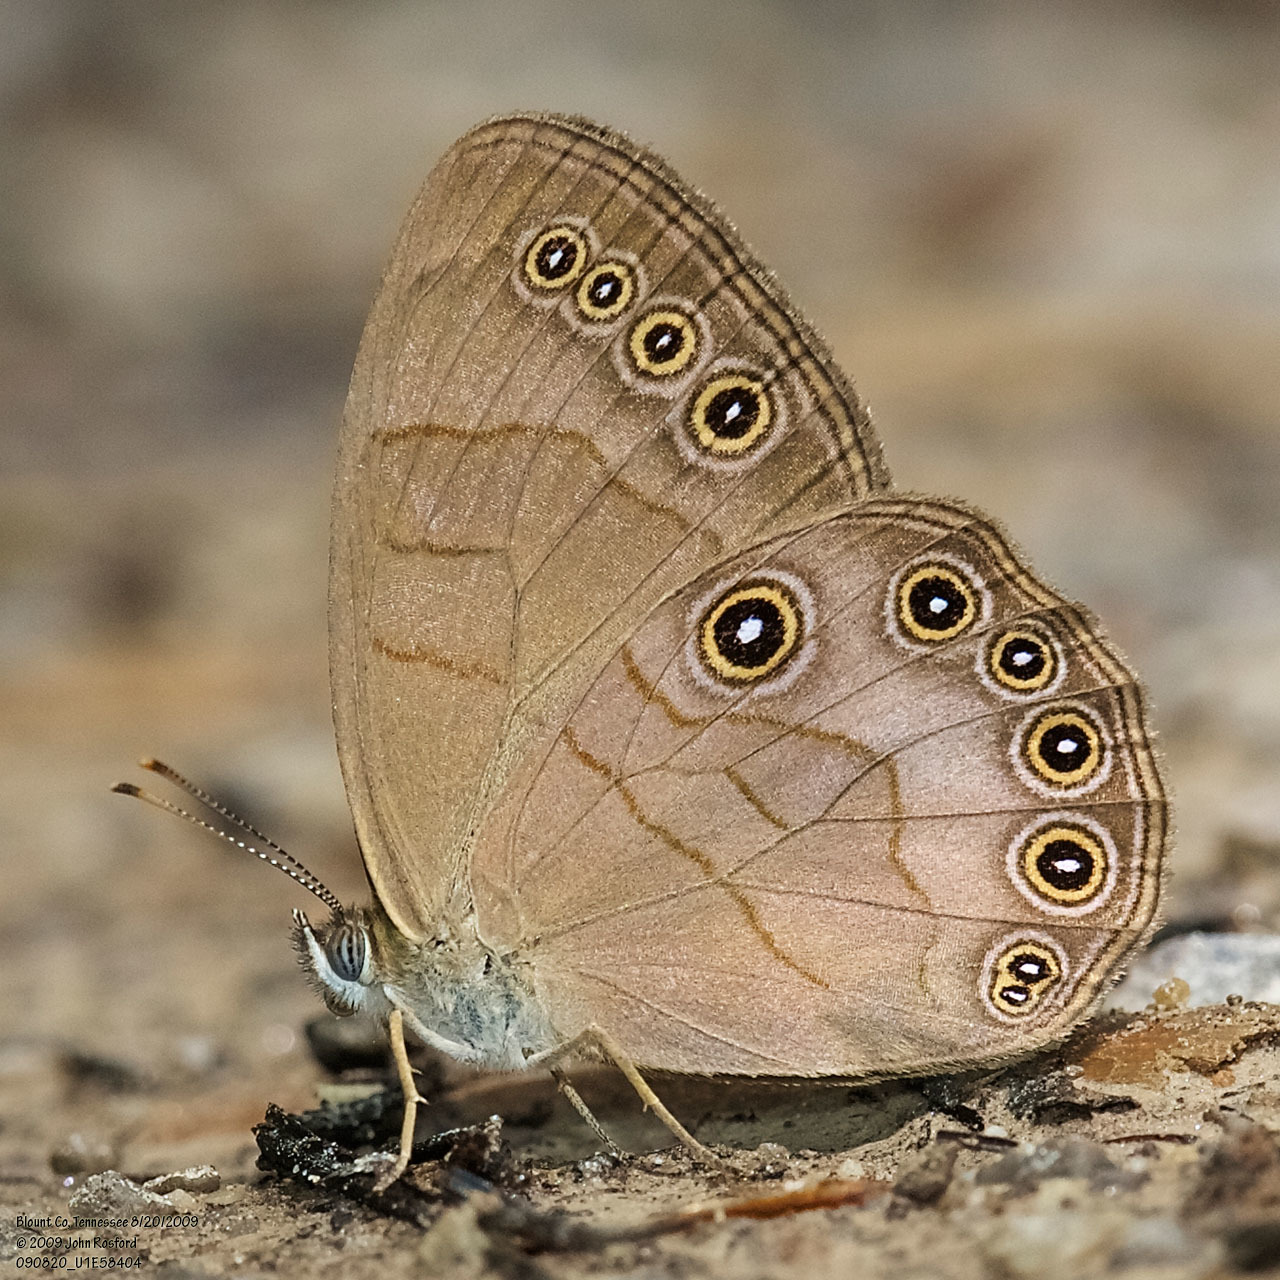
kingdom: Animalia
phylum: Arthropoda
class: Insecta
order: Lepidoptera
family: Nymphalidae
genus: Lethe
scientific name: Lethe eurydice
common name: Eyed brown
